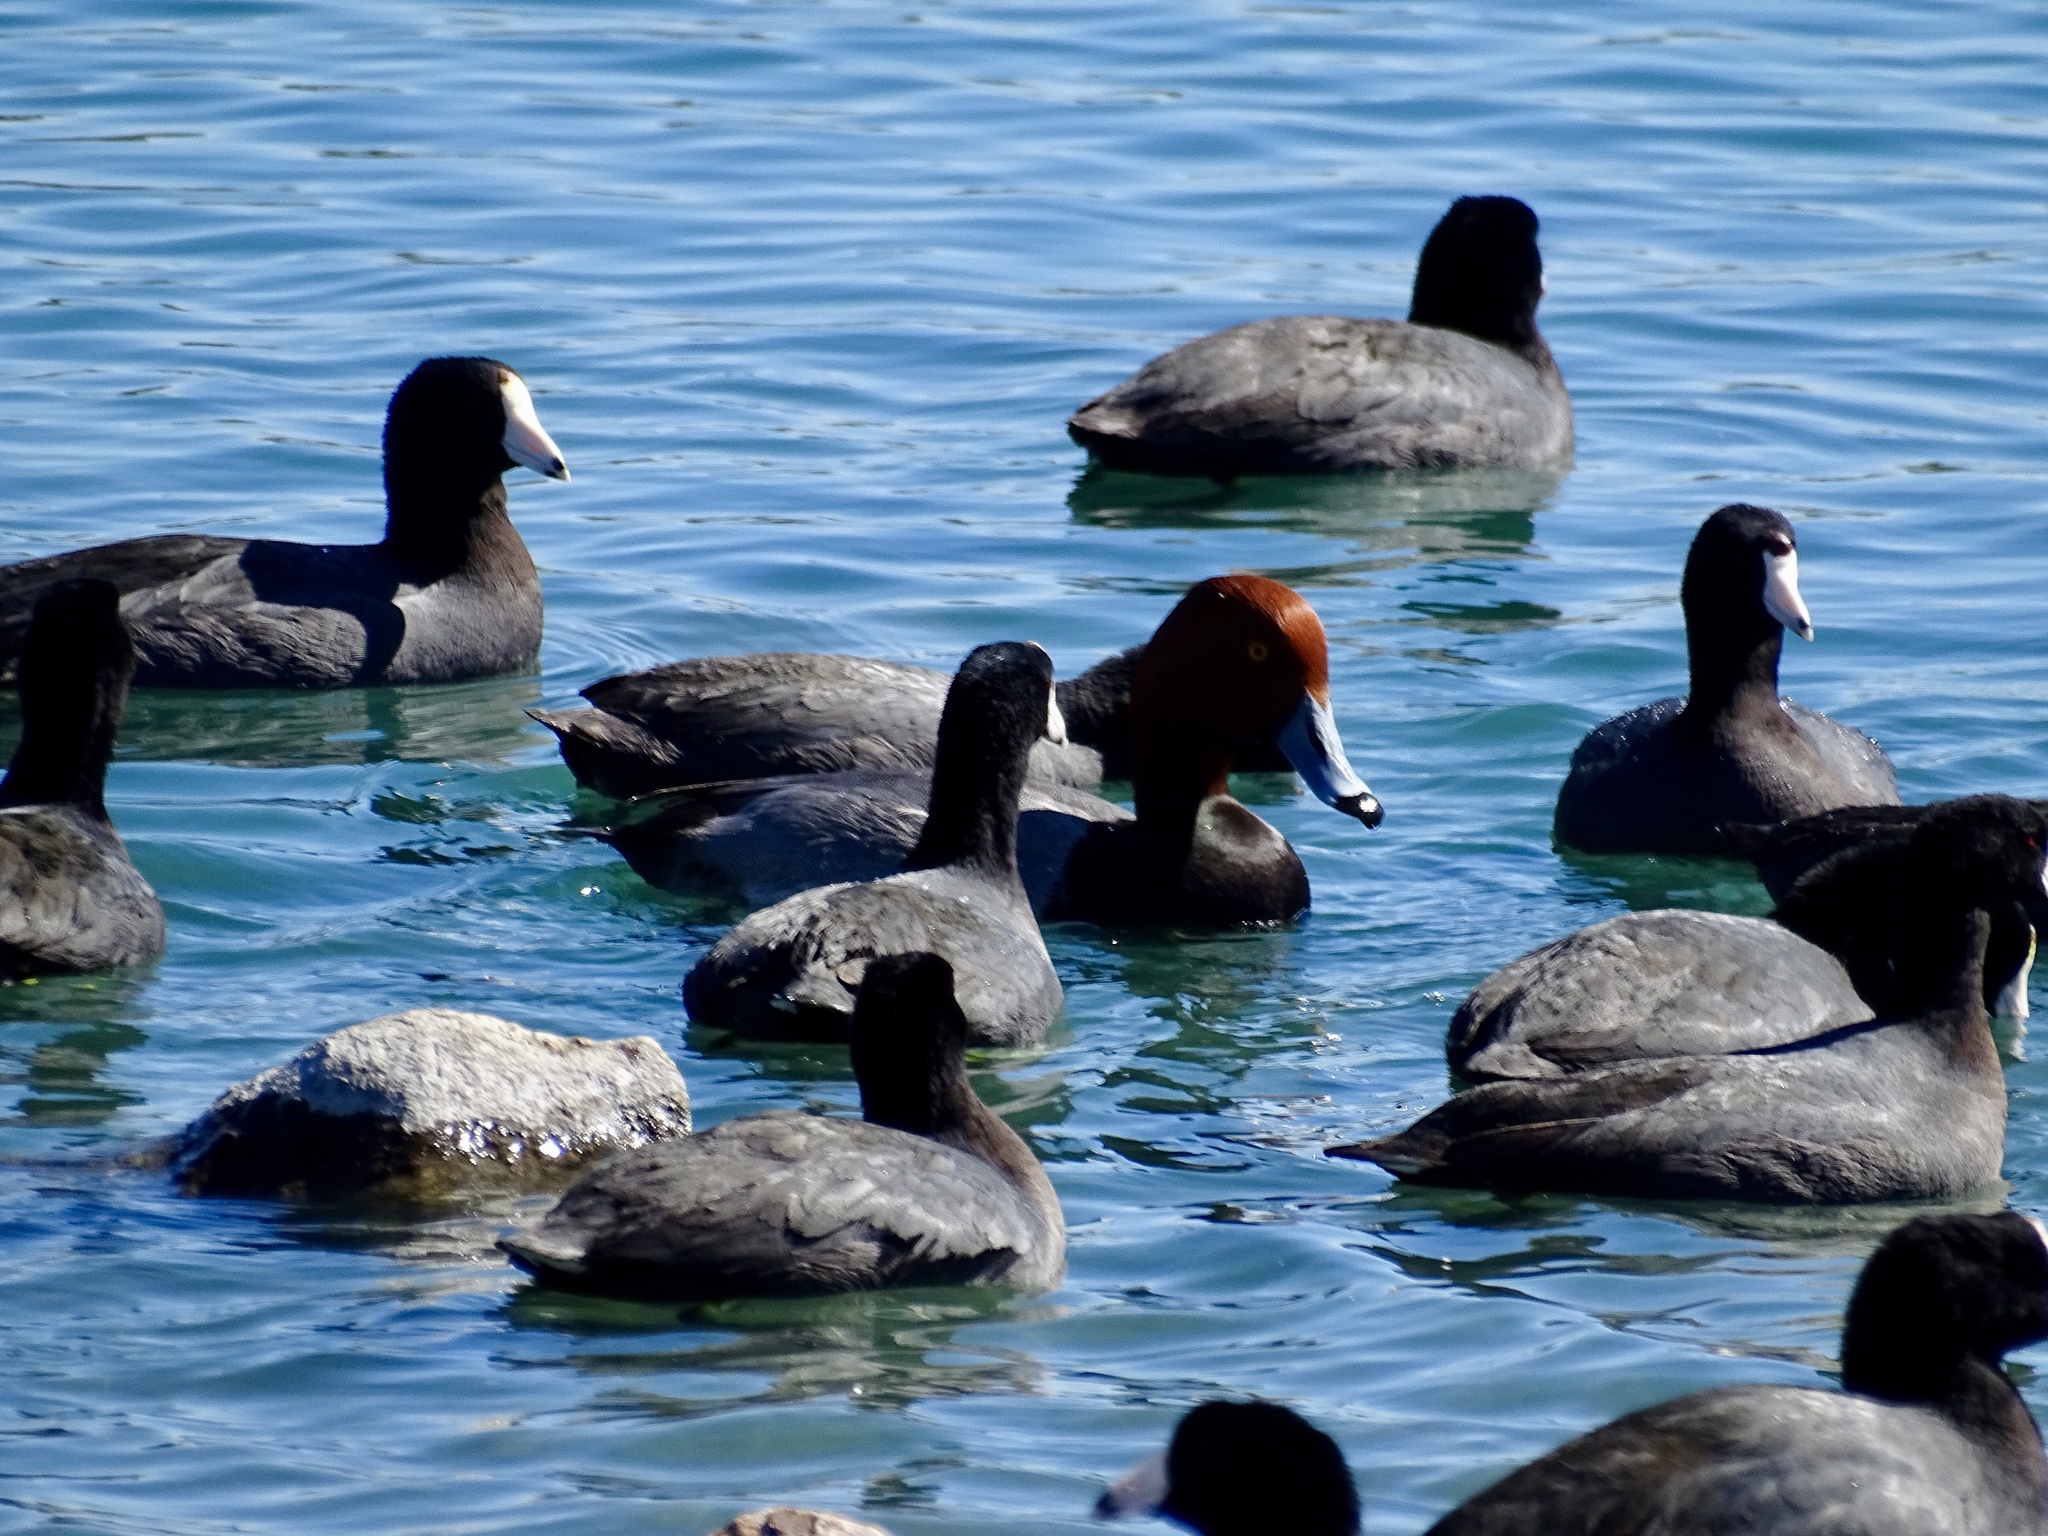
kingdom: Animalia
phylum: Chordata
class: Aves
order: Anseriformes
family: Anatidae
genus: Aythya
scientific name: Aythya americana
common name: Redhead
